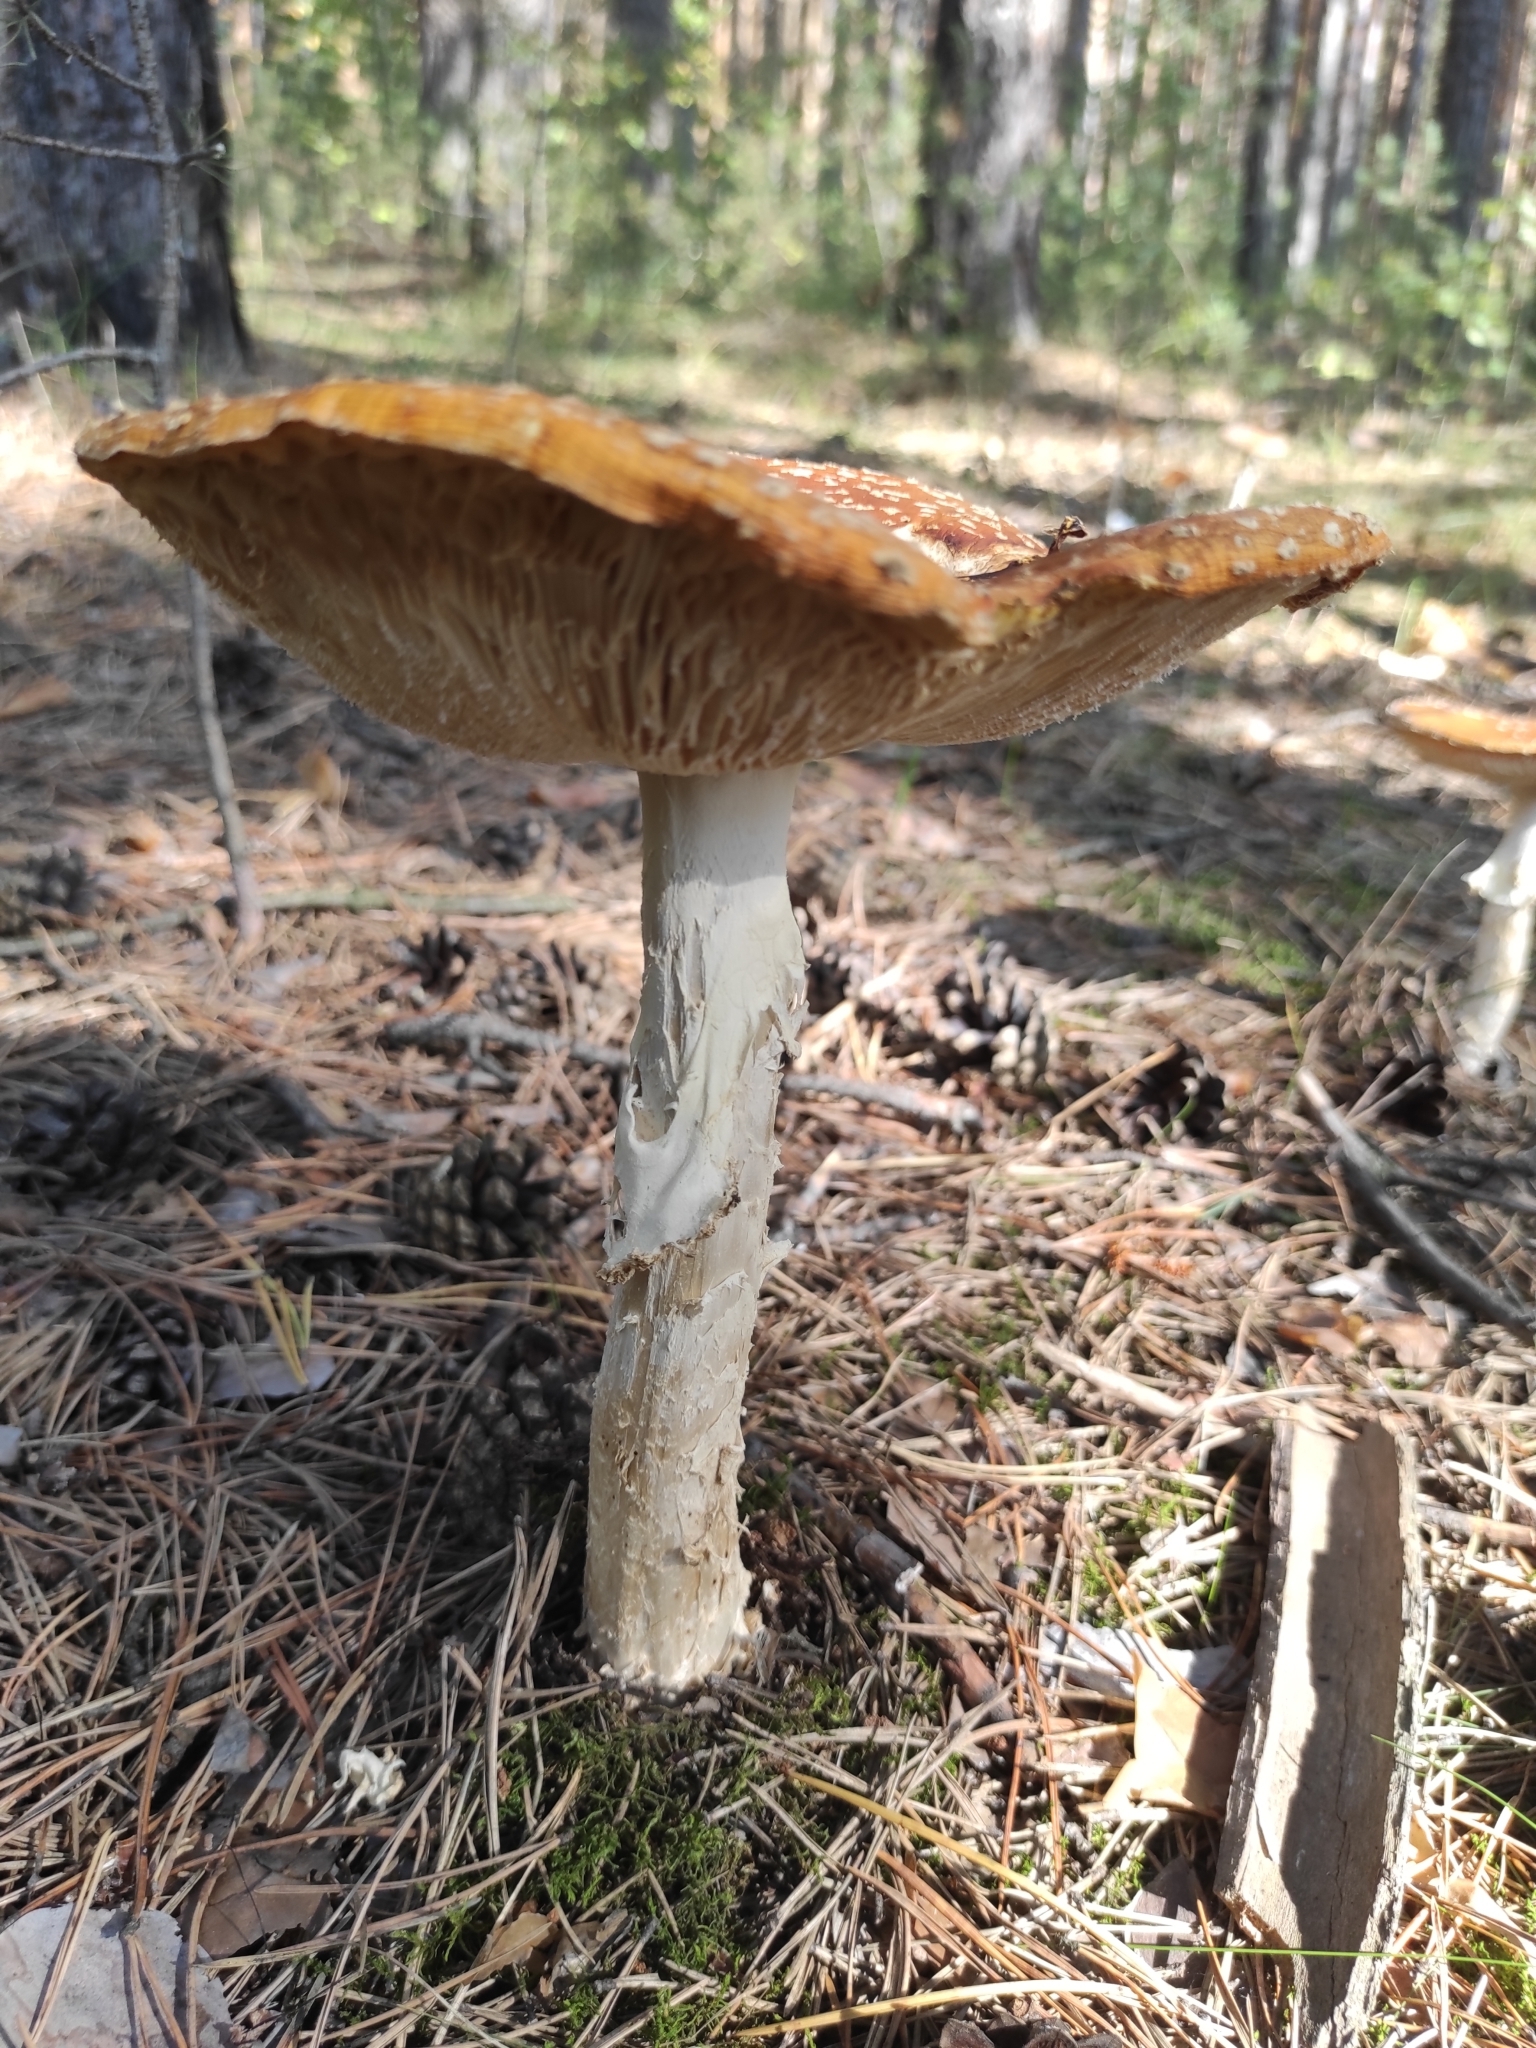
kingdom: Fungi
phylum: Basidiomycota
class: Agaricomycetes
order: Agaricales
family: Amanitaceae
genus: Amanita
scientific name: Amanita muscaria
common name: Fly agaric
